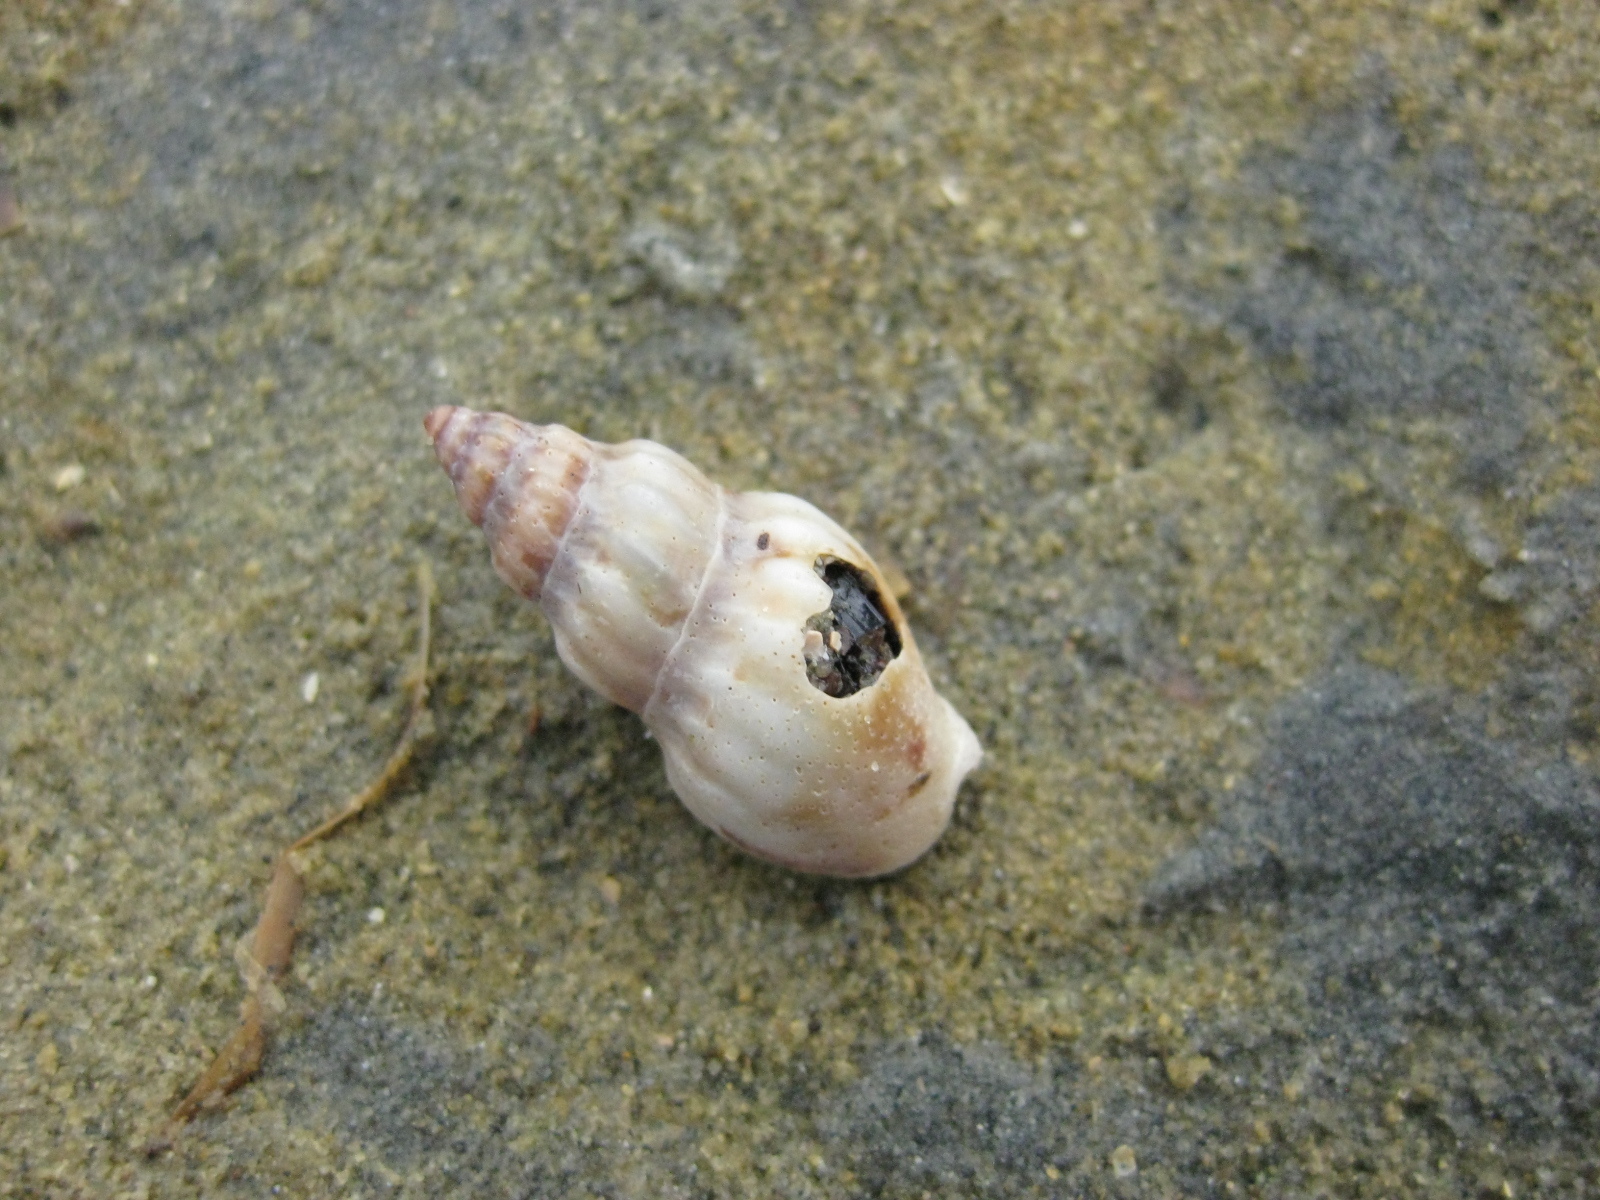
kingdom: Animalia
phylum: Mollusca
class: Gastropoda
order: Neogastropoda
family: Cominellidae
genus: Cominella
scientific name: Cominella quoyana
